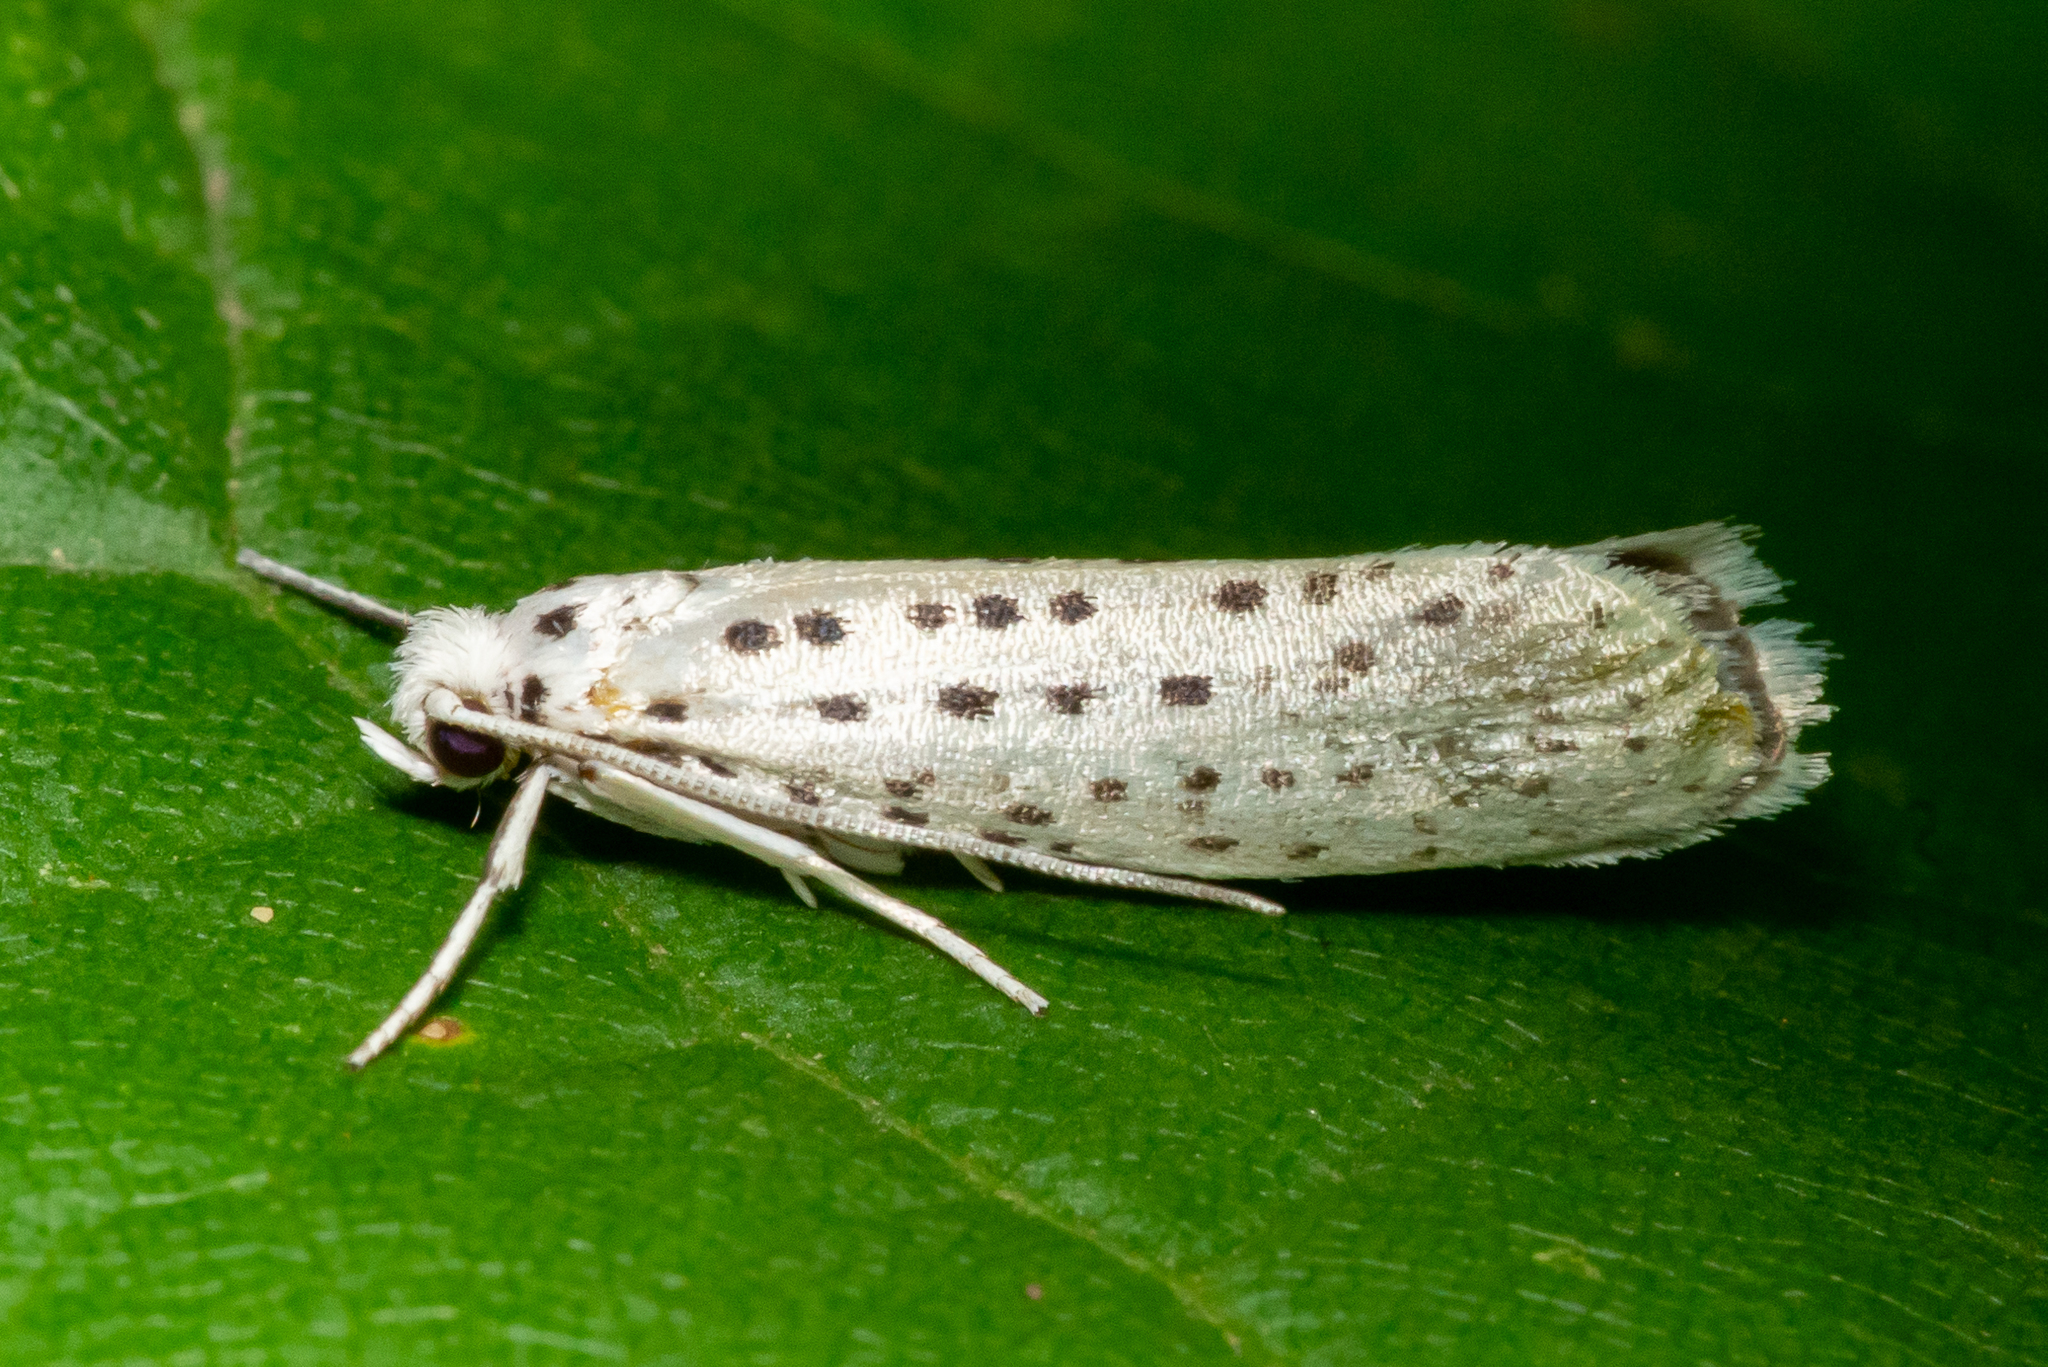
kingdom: Animalia
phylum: Arthropoda
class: Insecta
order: Lepidoptera
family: Yponomeutidae
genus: Yponomeuta
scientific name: Yponomeuta multipunctella
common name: American ermine moth
